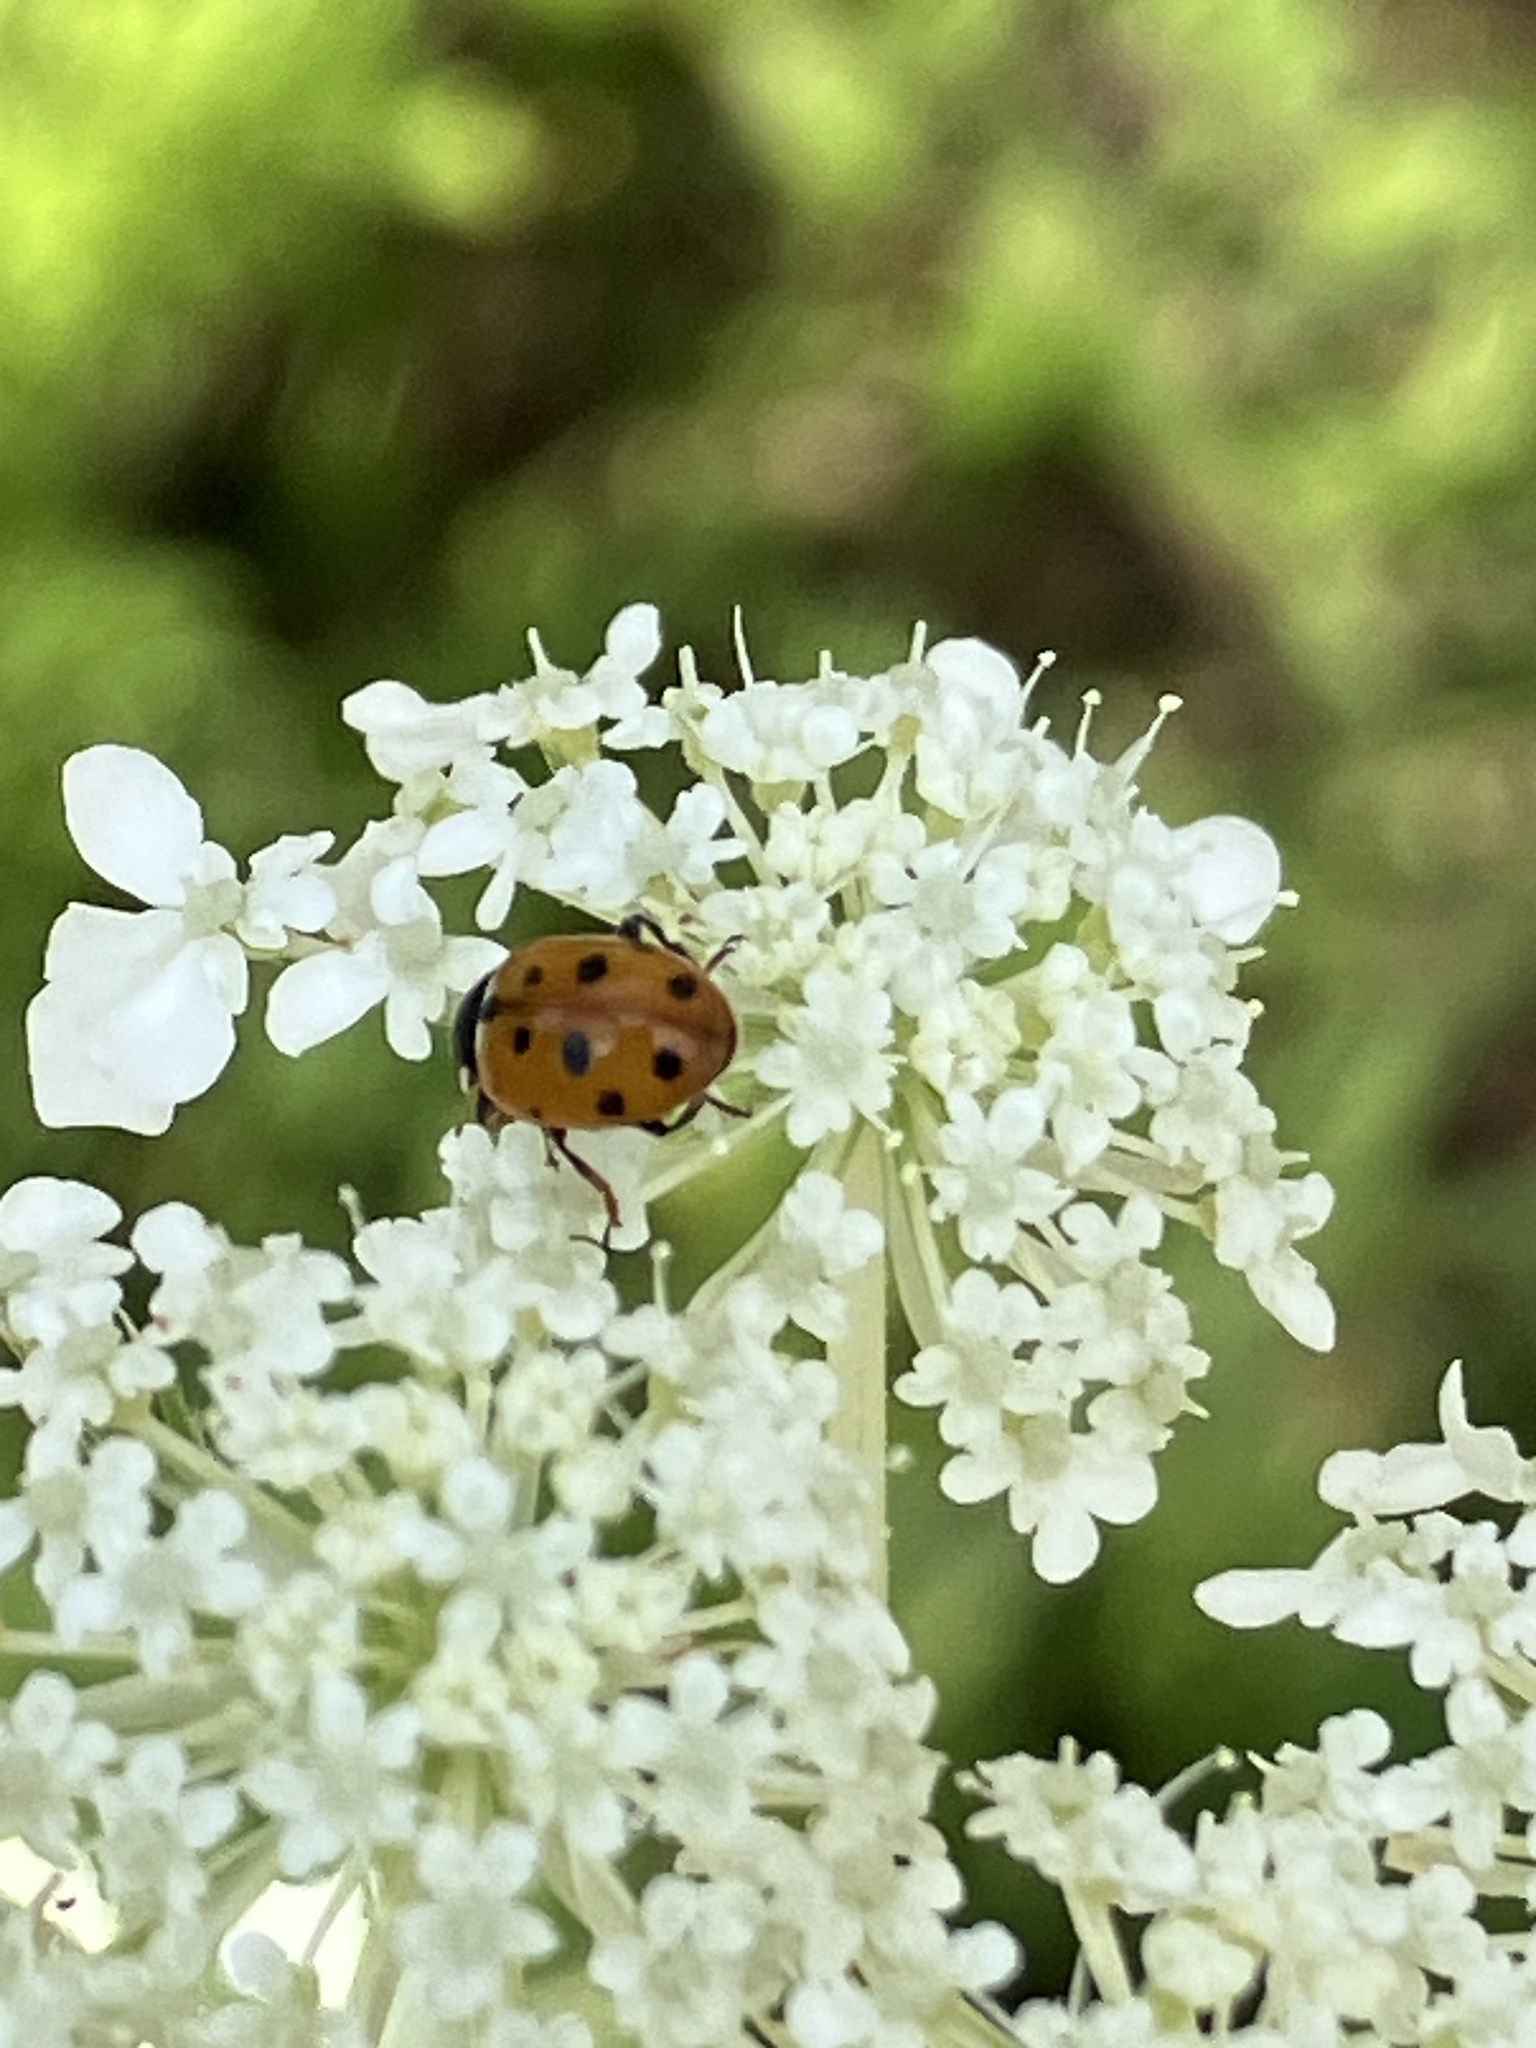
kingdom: Animalia
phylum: Arthropoda
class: Insecta
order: Coleoptera
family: Coccinellidae
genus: Hippodamia
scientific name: Hippodamia
